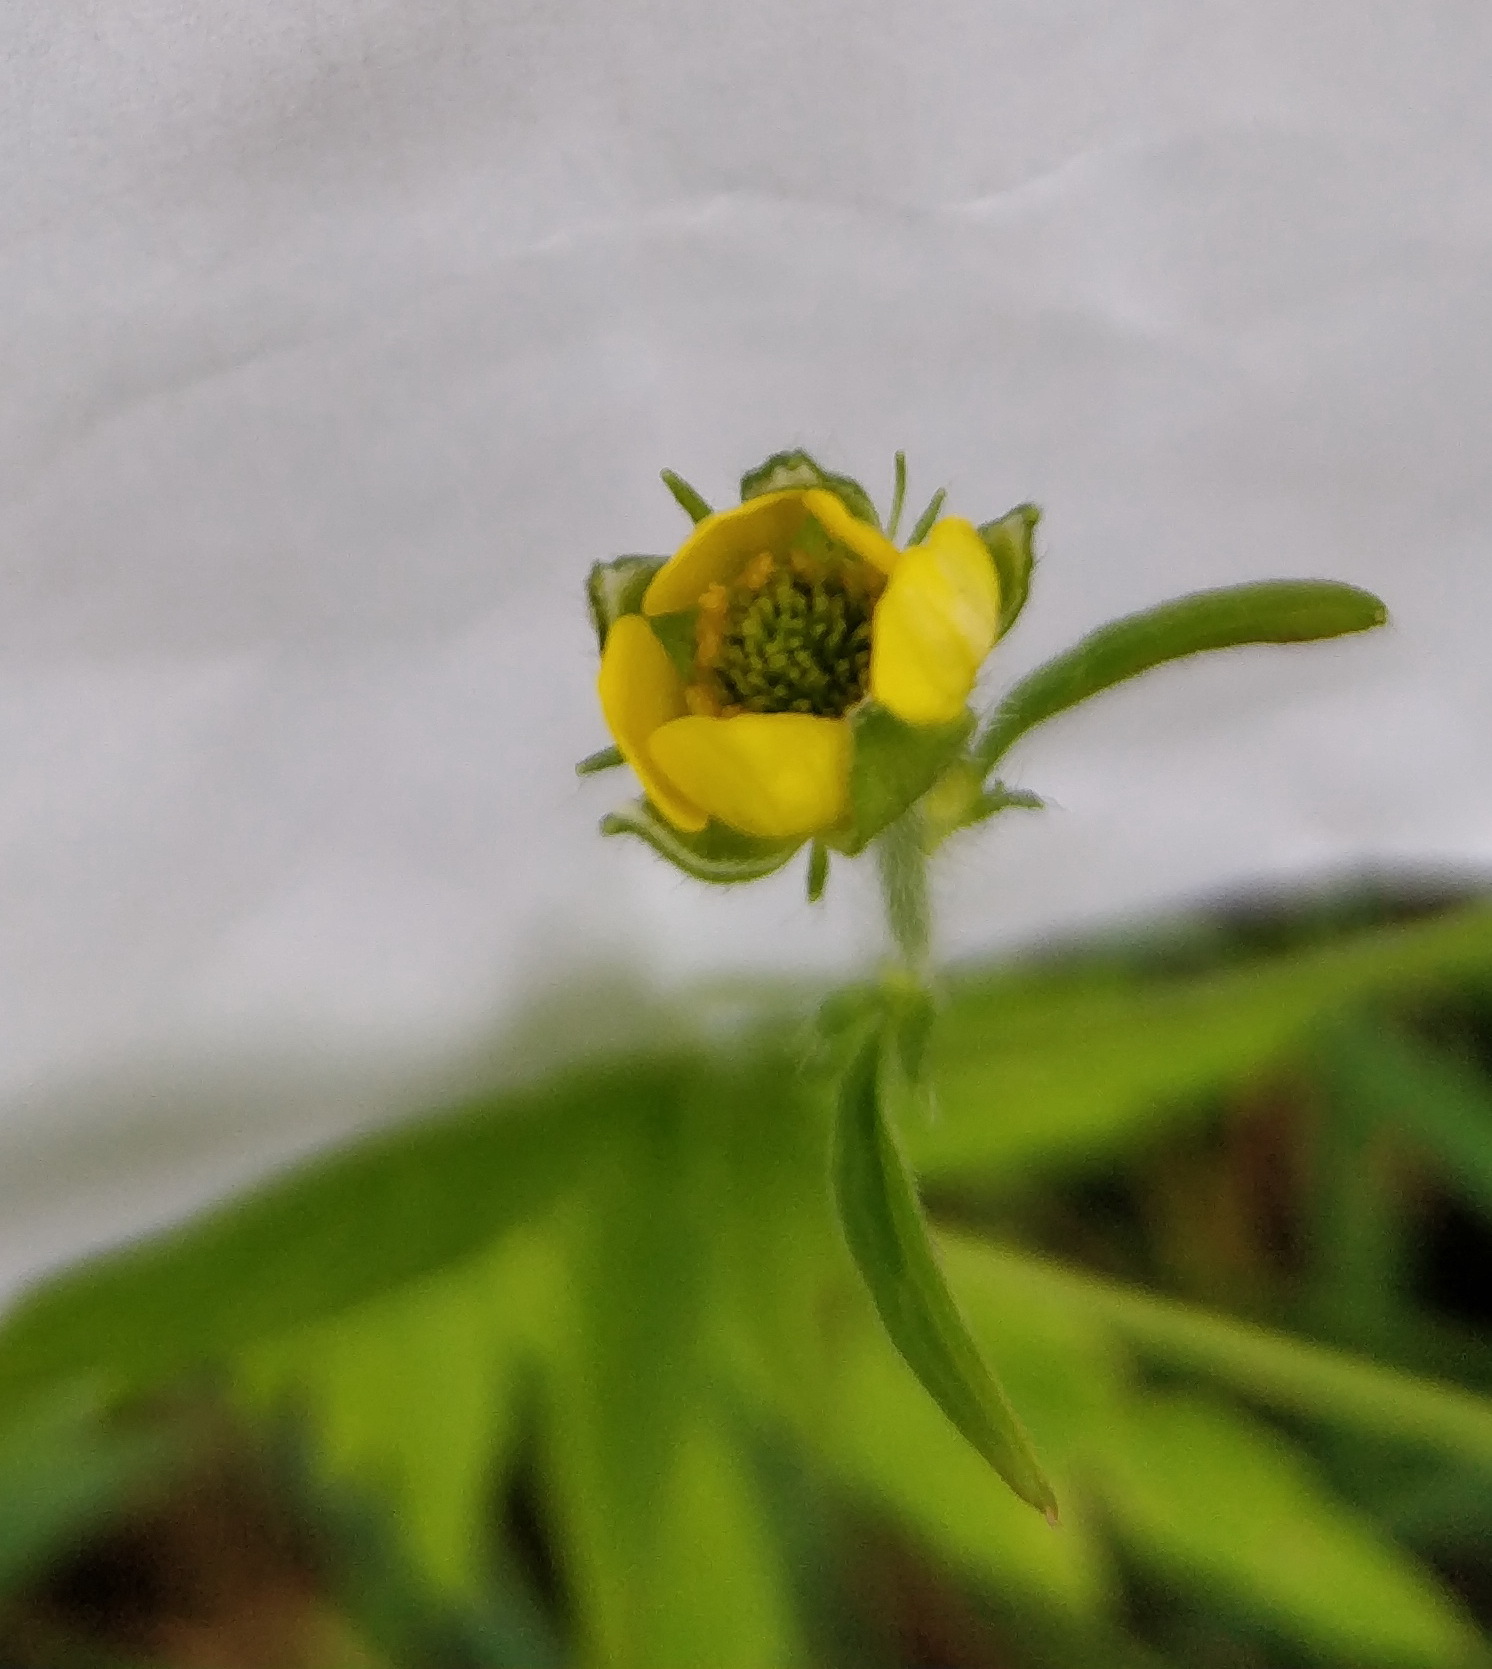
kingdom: Plantae
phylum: Tracheophyta
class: Magnoliopsida
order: Rosales
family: Rosaceae
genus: Geum
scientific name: Geum urbanum
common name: Wood avens
